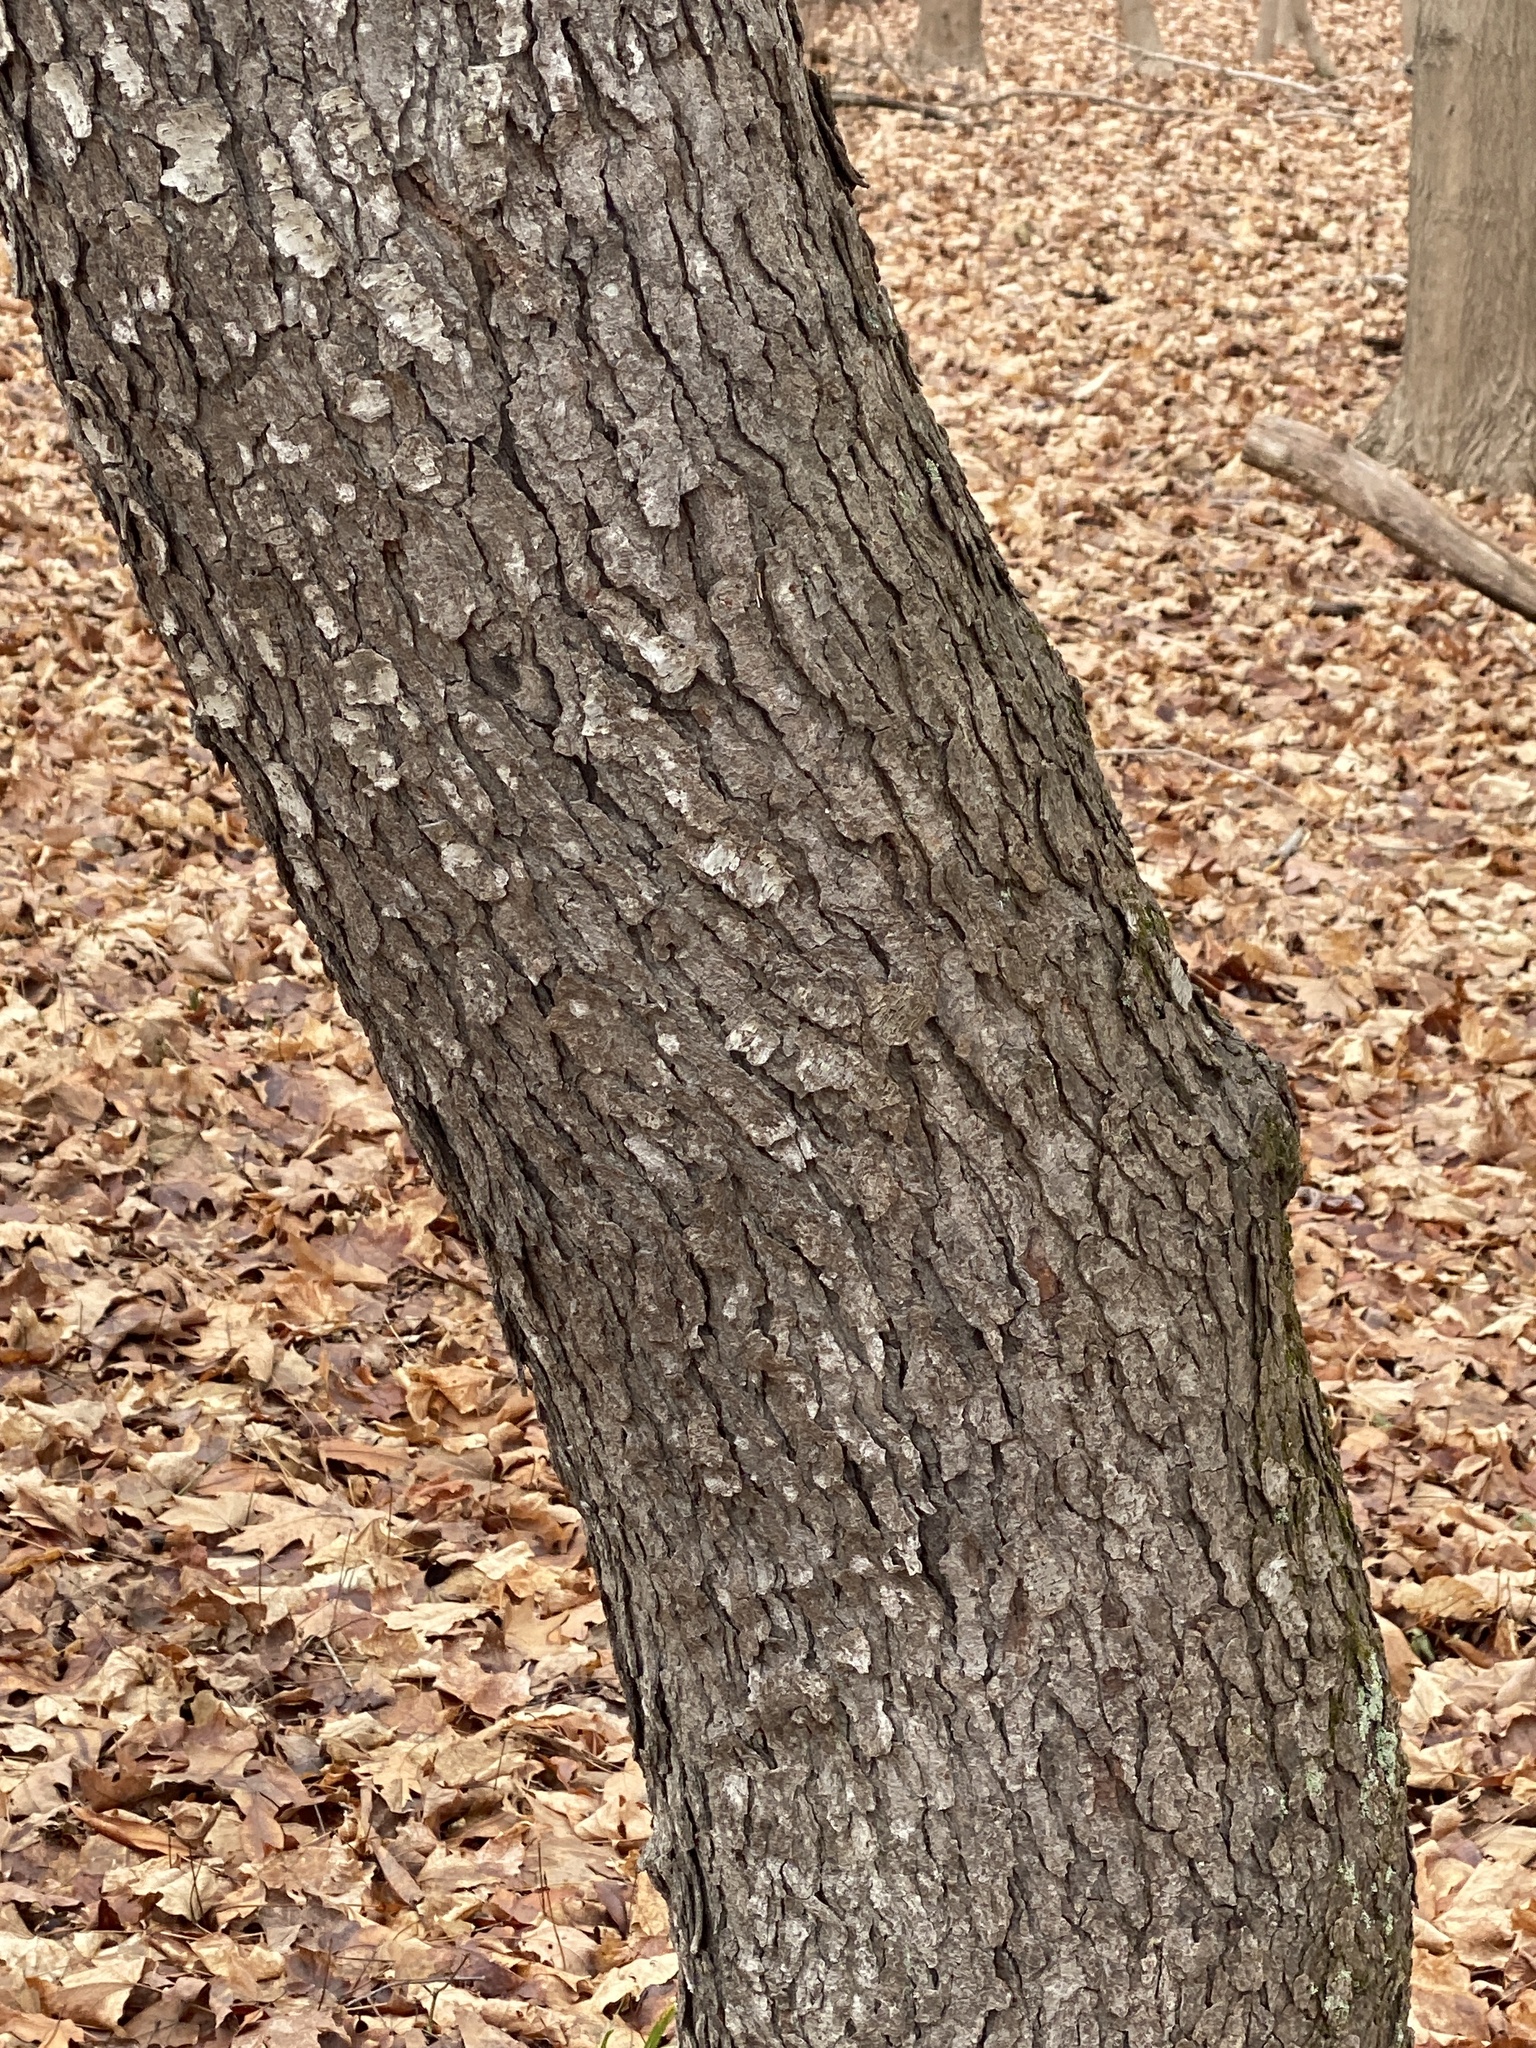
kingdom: Plantae
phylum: Tracheophyta
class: Magnoliopsida
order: Rosales
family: Rosaceae
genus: Prunus
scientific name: Prunus serotina
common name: Black cherry
